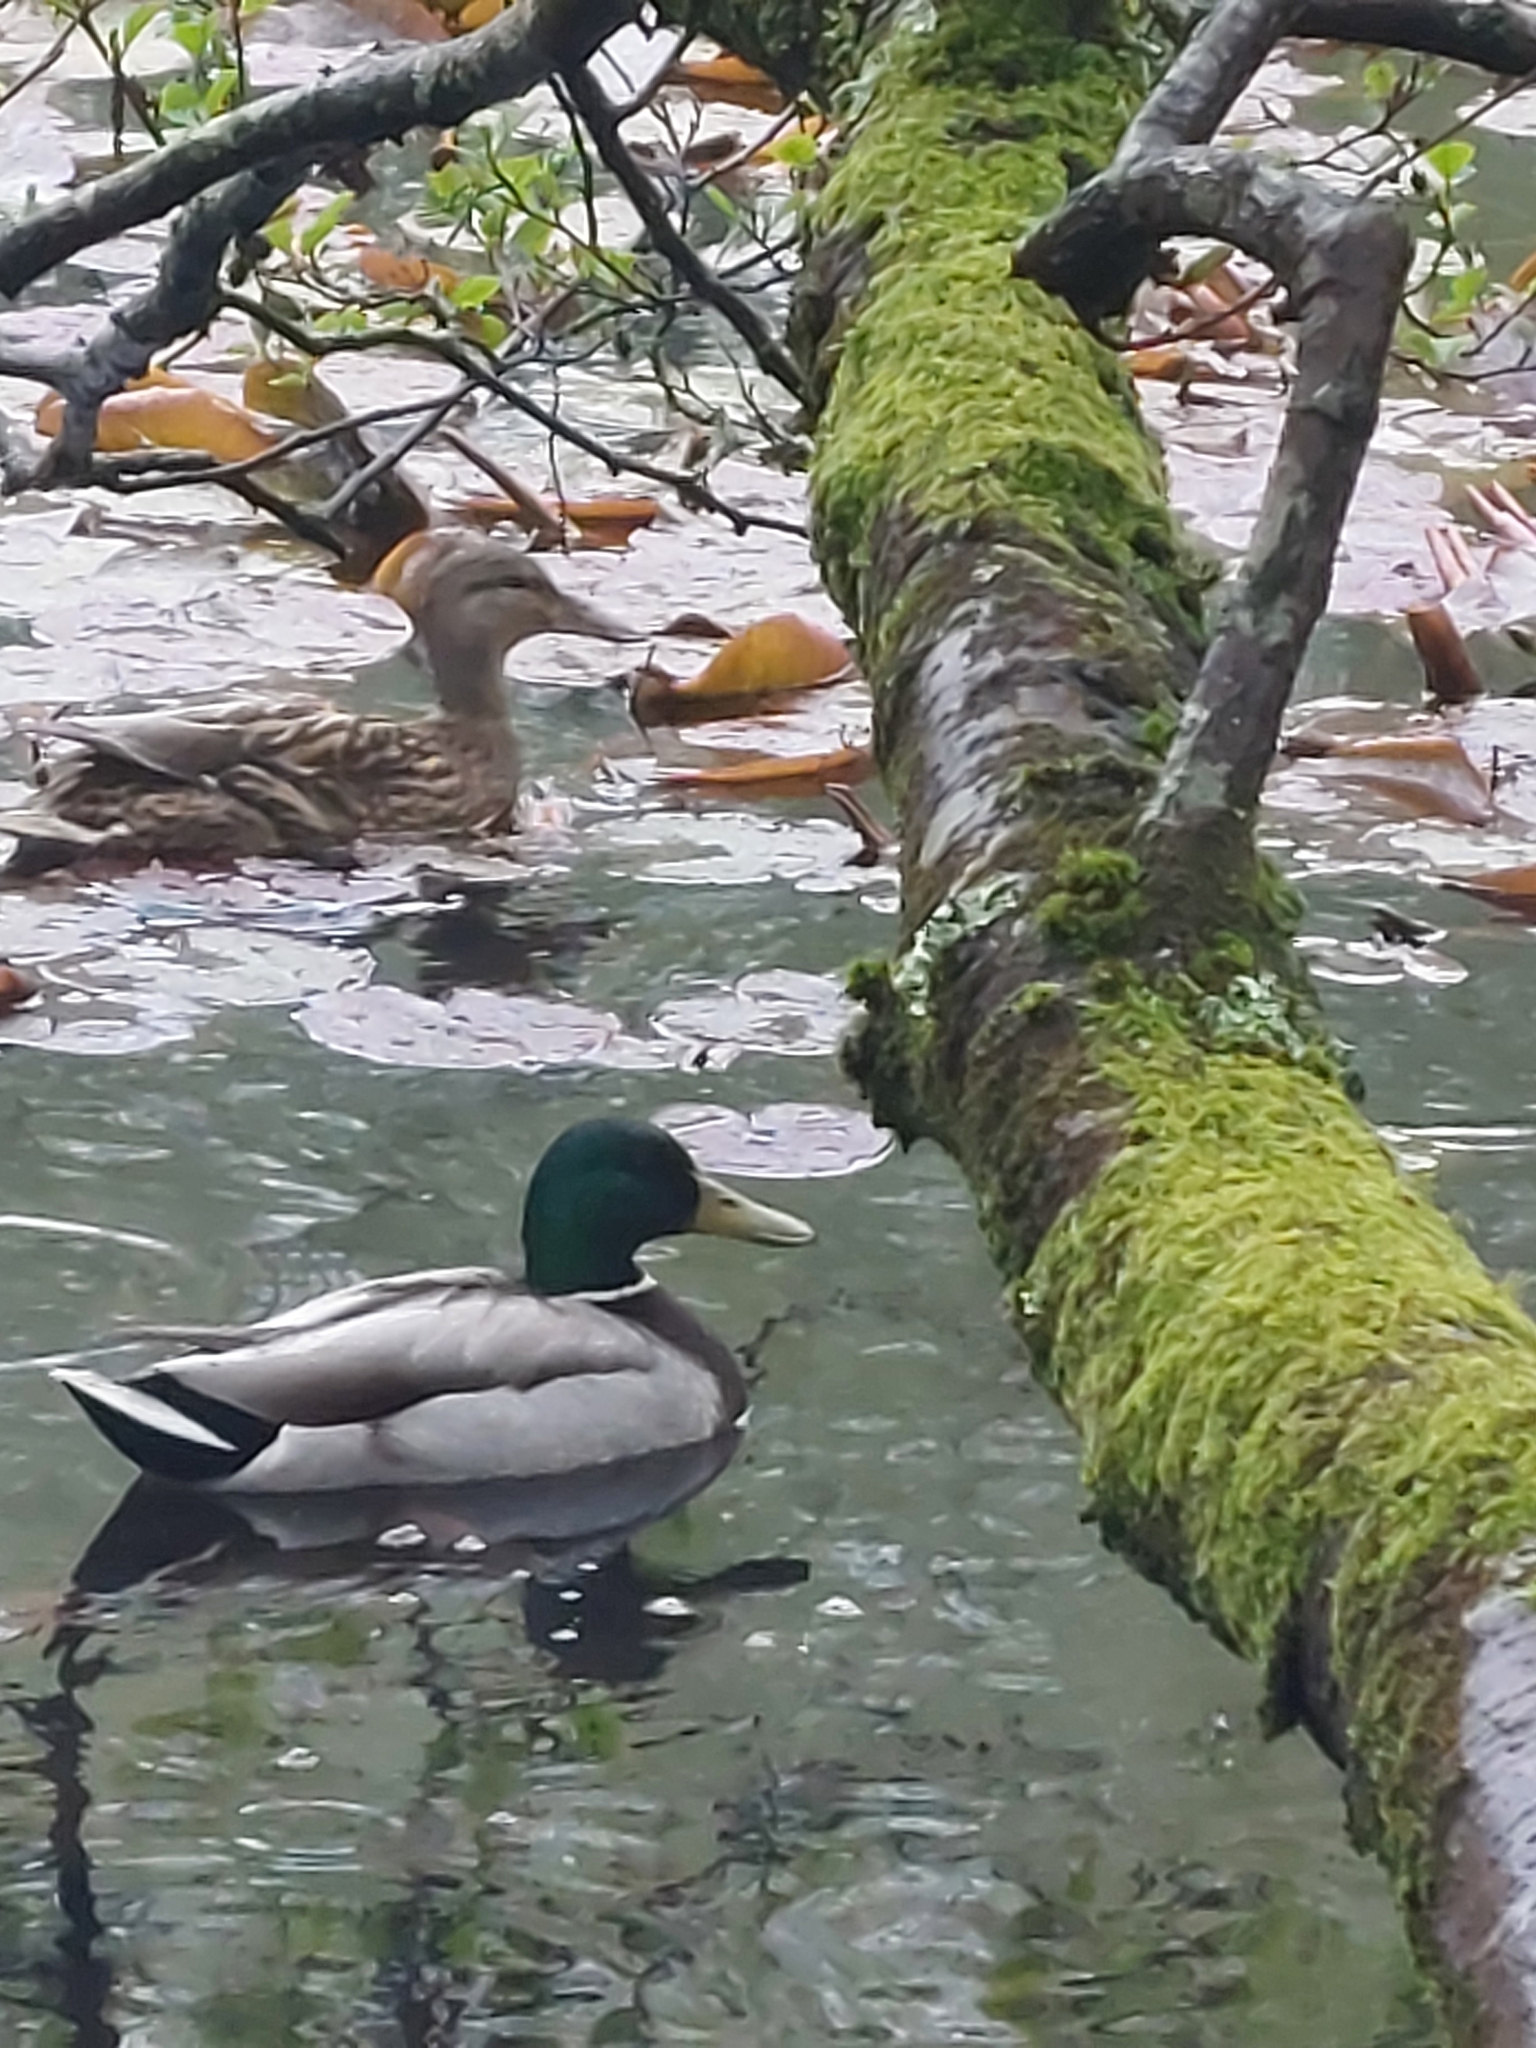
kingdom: Animalia
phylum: Chordata
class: Aves
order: Anseriformes
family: Anatidae
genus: Anas
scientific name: Anas platyrhynchos
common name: Mallard
